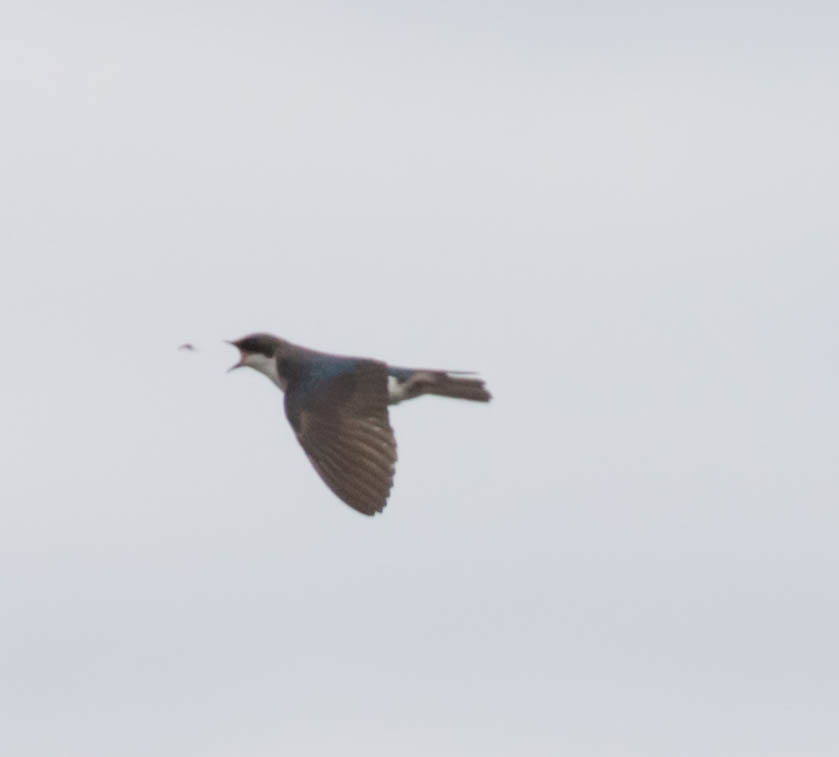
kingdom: Animalia
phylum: Chordata
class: Aves
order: Passeriformes
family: Hirundinidae
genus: Tachycineta
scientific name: Tachycineta bicolor
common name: Tree swallow
